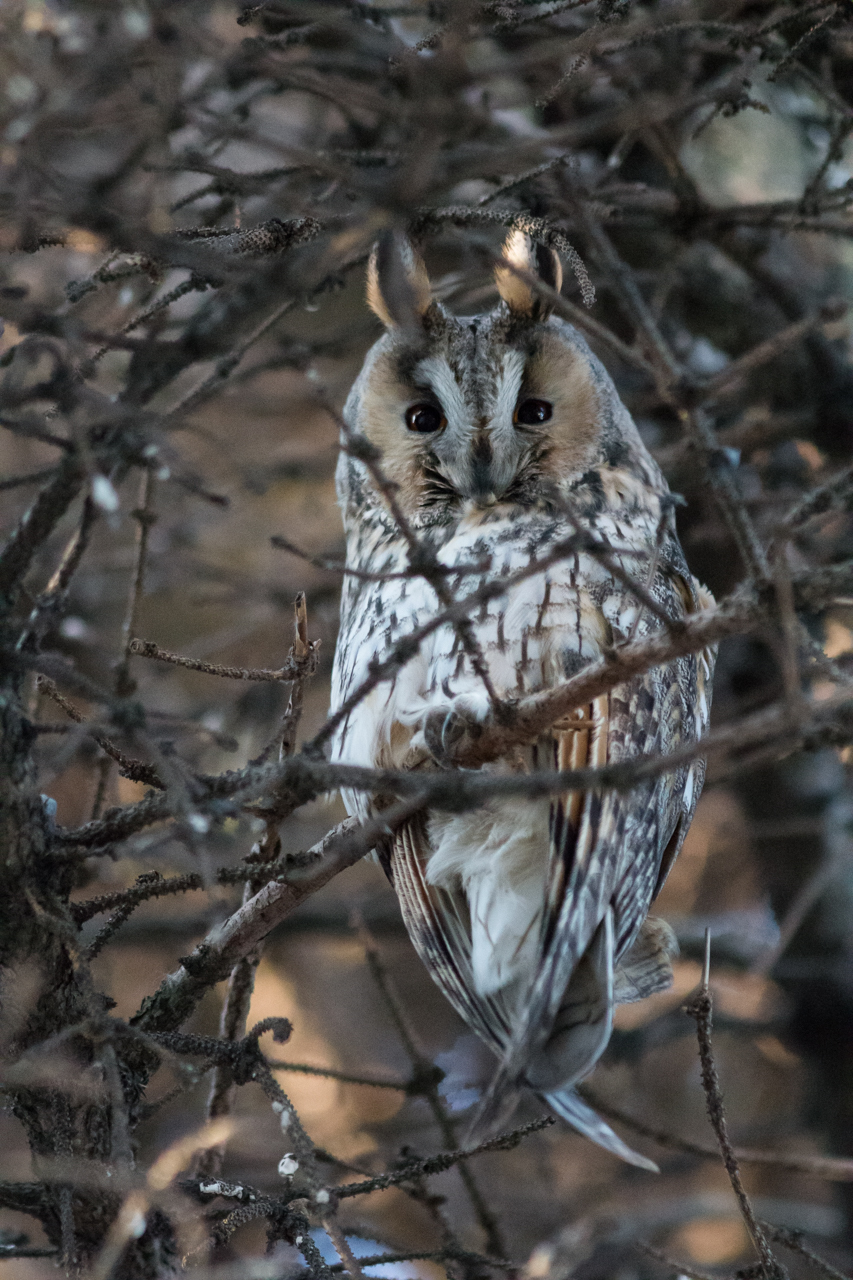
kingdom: Animalia
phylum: Chordata
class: Aves
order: Strigiformes
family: Strigidae
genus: Asio
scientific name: Asio otus
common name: Long-eared owl
